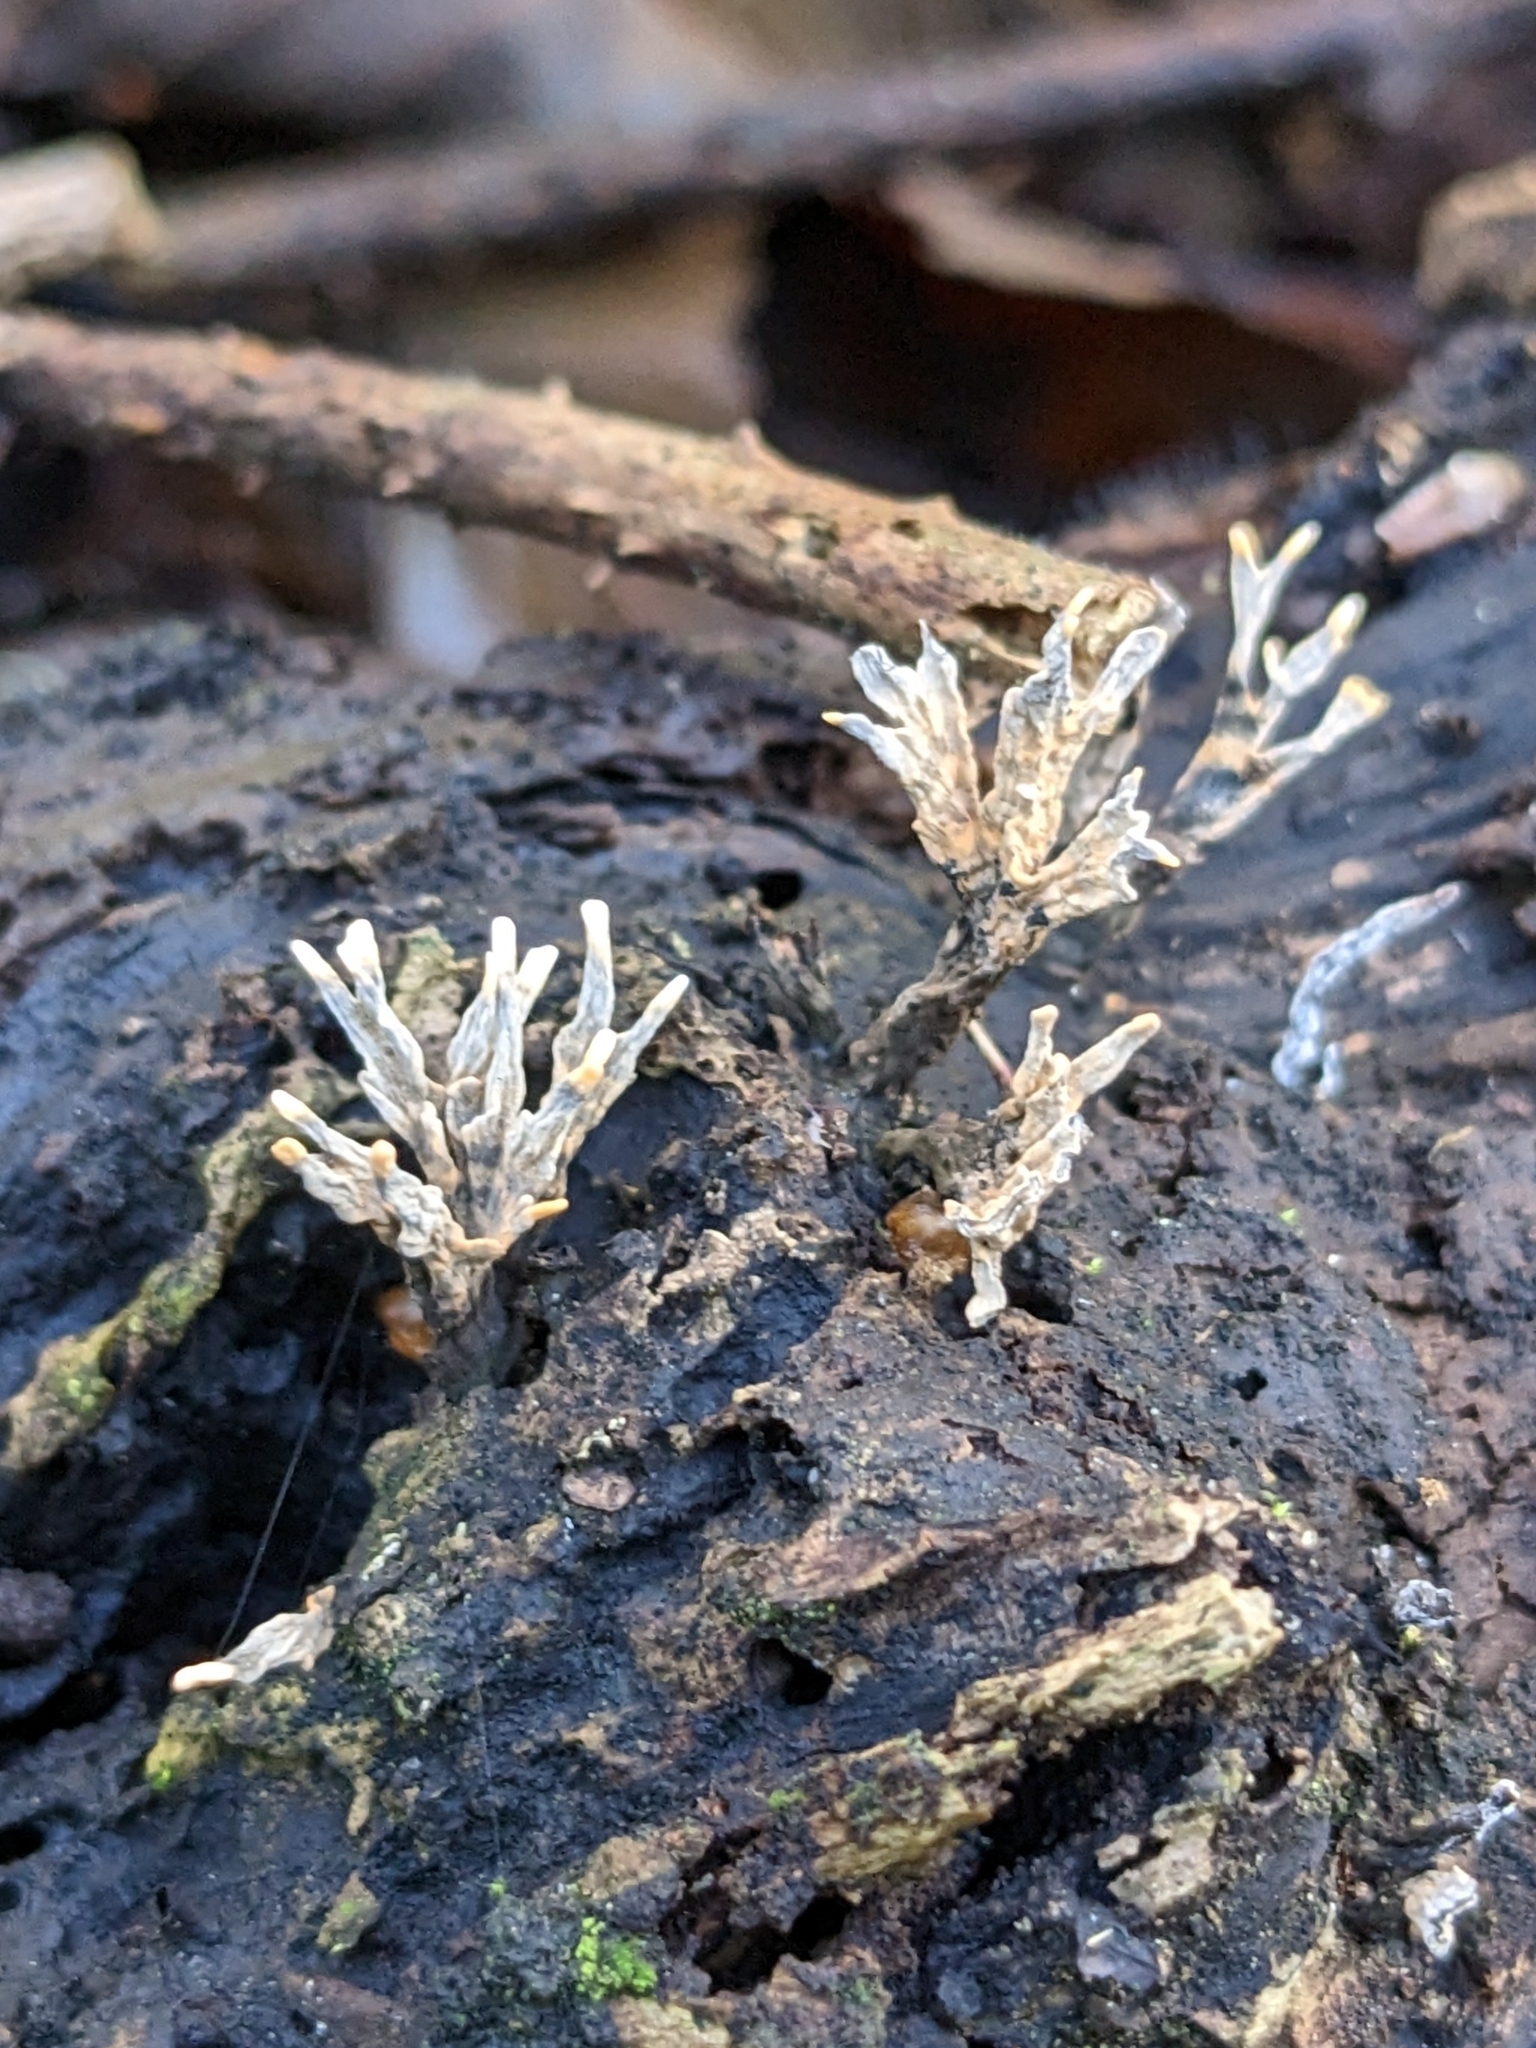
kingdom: Fungi
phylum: Ascomycota
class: Sordariomycetes
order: Xylariales
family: Xylariaceae
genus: Xylaria
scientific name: Xylaria hypoxylon
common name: Candle-snuff fungus
